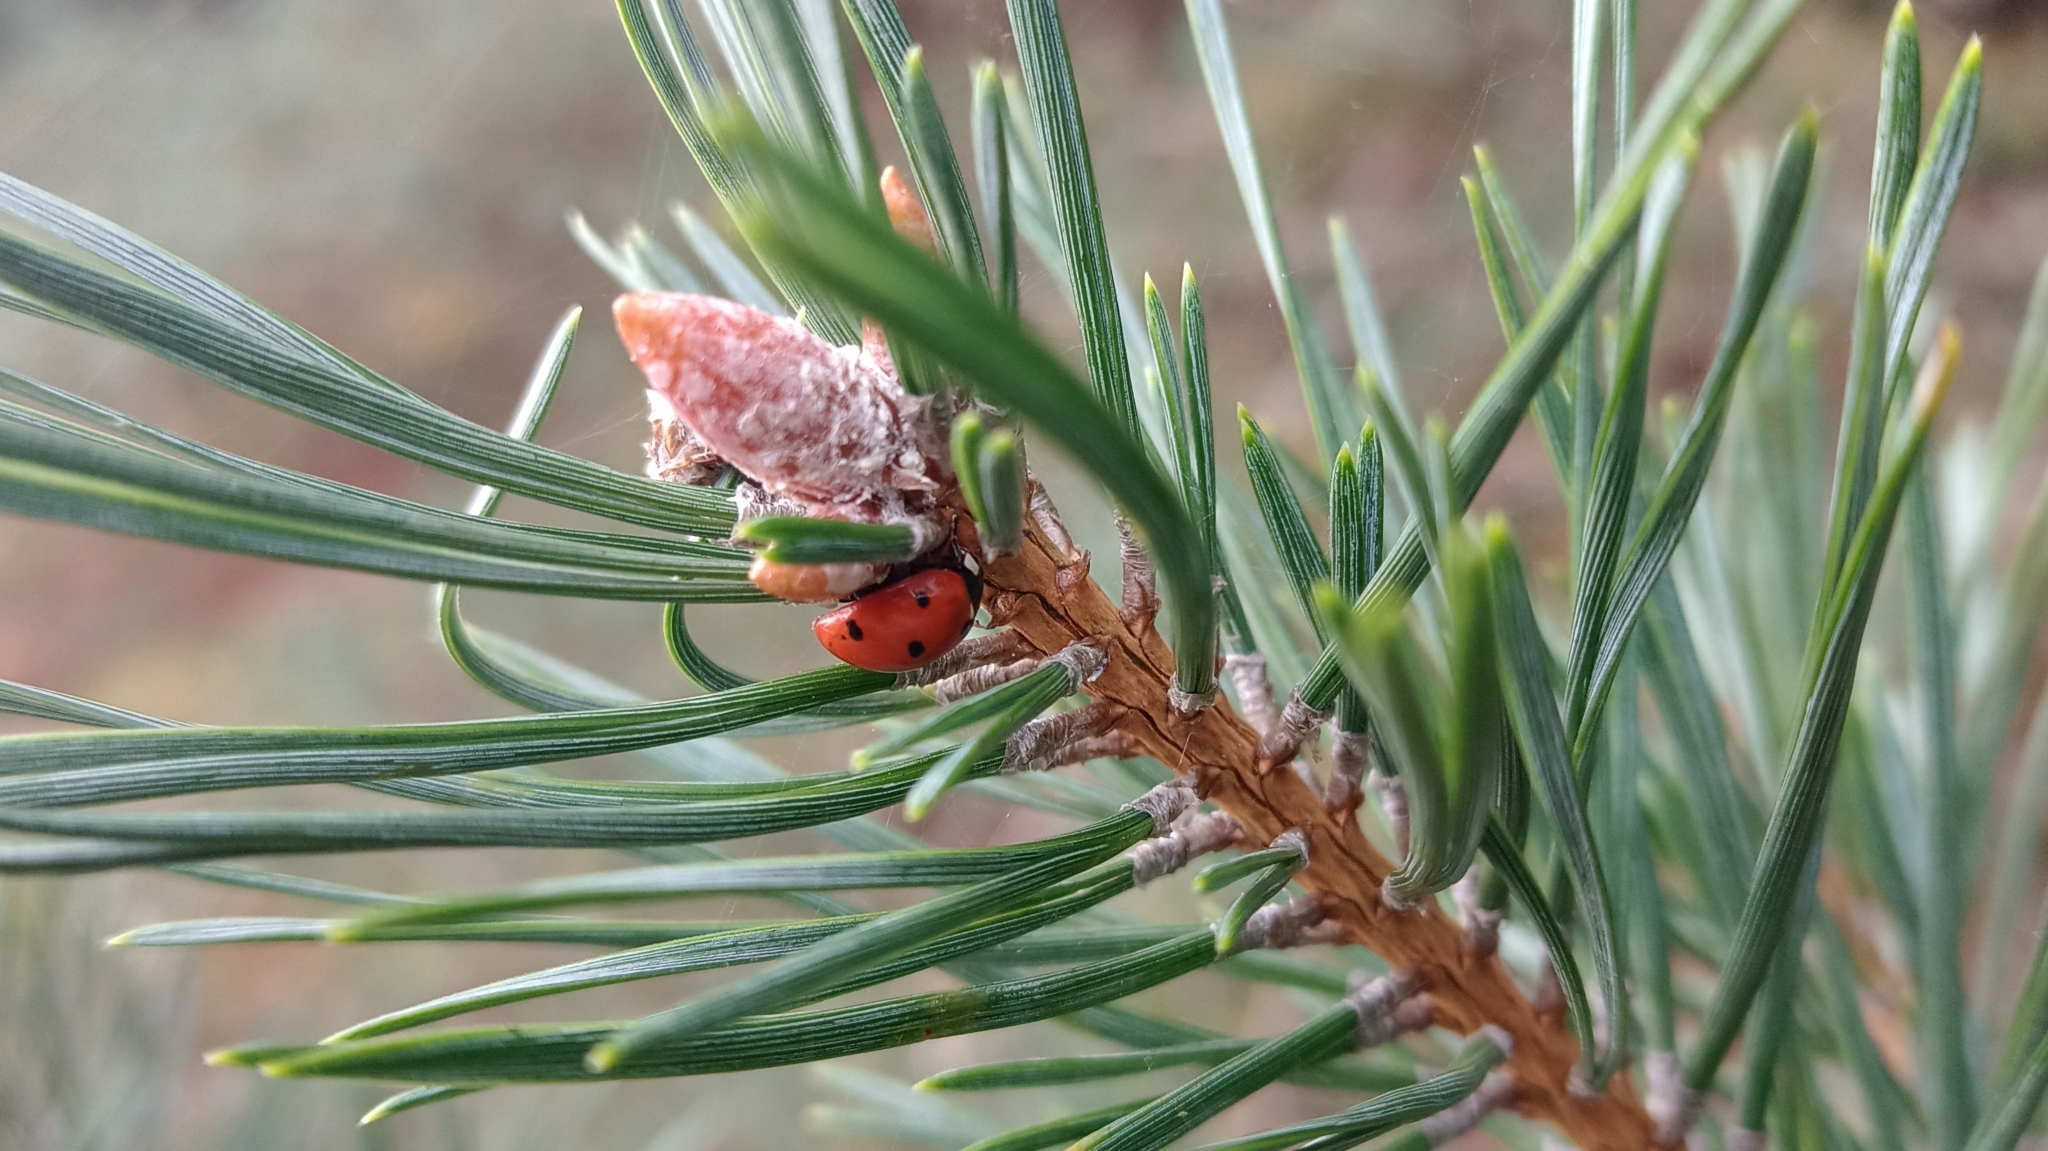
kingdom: Animalia
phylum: Arthropoda
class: Insecta
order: Coleoptera
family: Coccinellidae
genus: Coccinella
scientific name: Coccinella septempunctata
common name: Sevenspotted lady beetle
